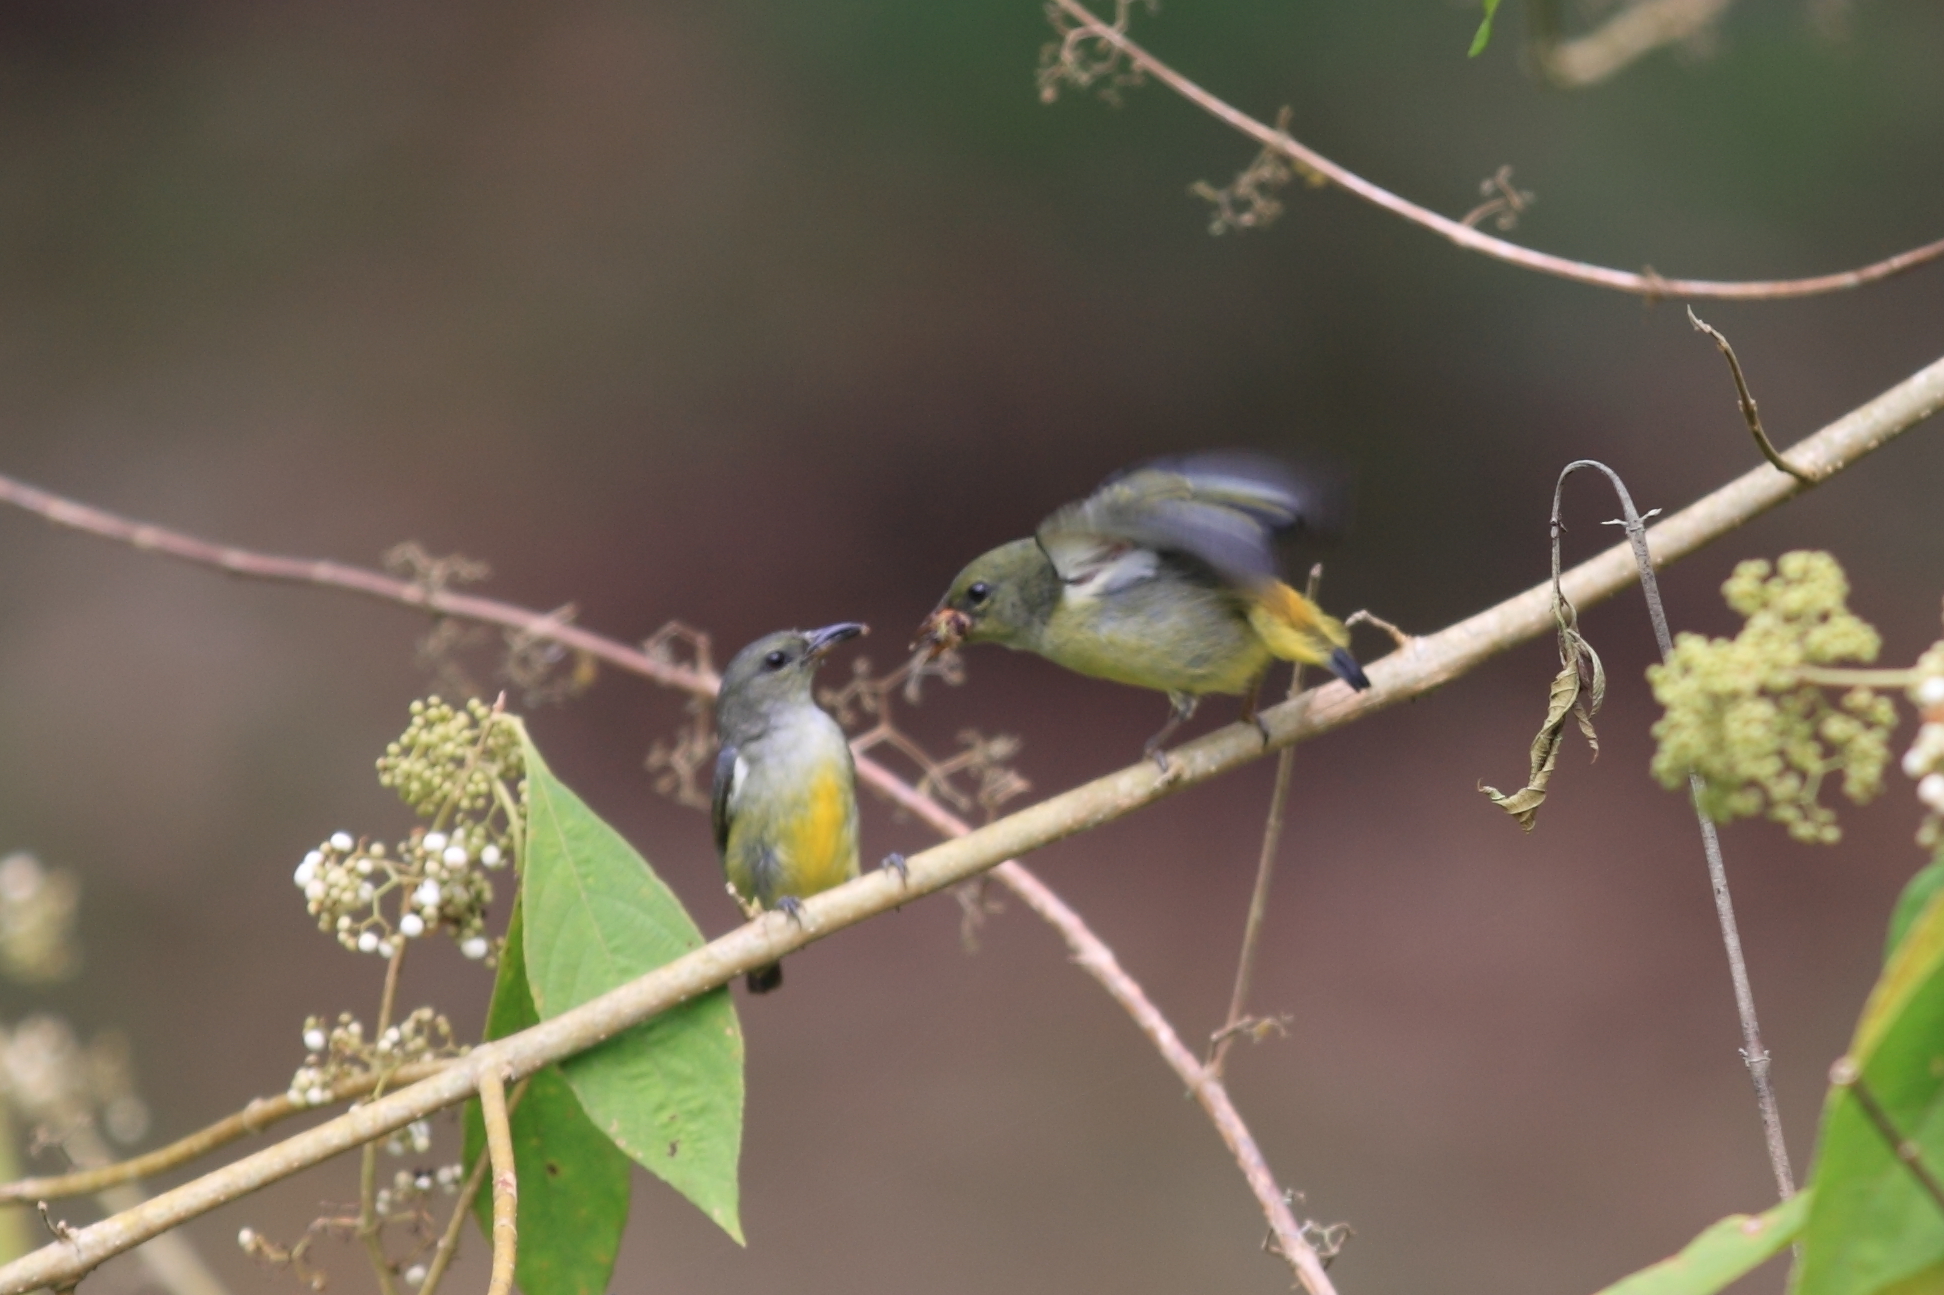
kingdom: Animalia
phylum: Chordata
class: Aves
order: Passeriformes
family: Dicaeidae
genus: Dicaeum
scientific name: Dicaeum trigonostigma
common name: Orange-bellied flowerpecker
